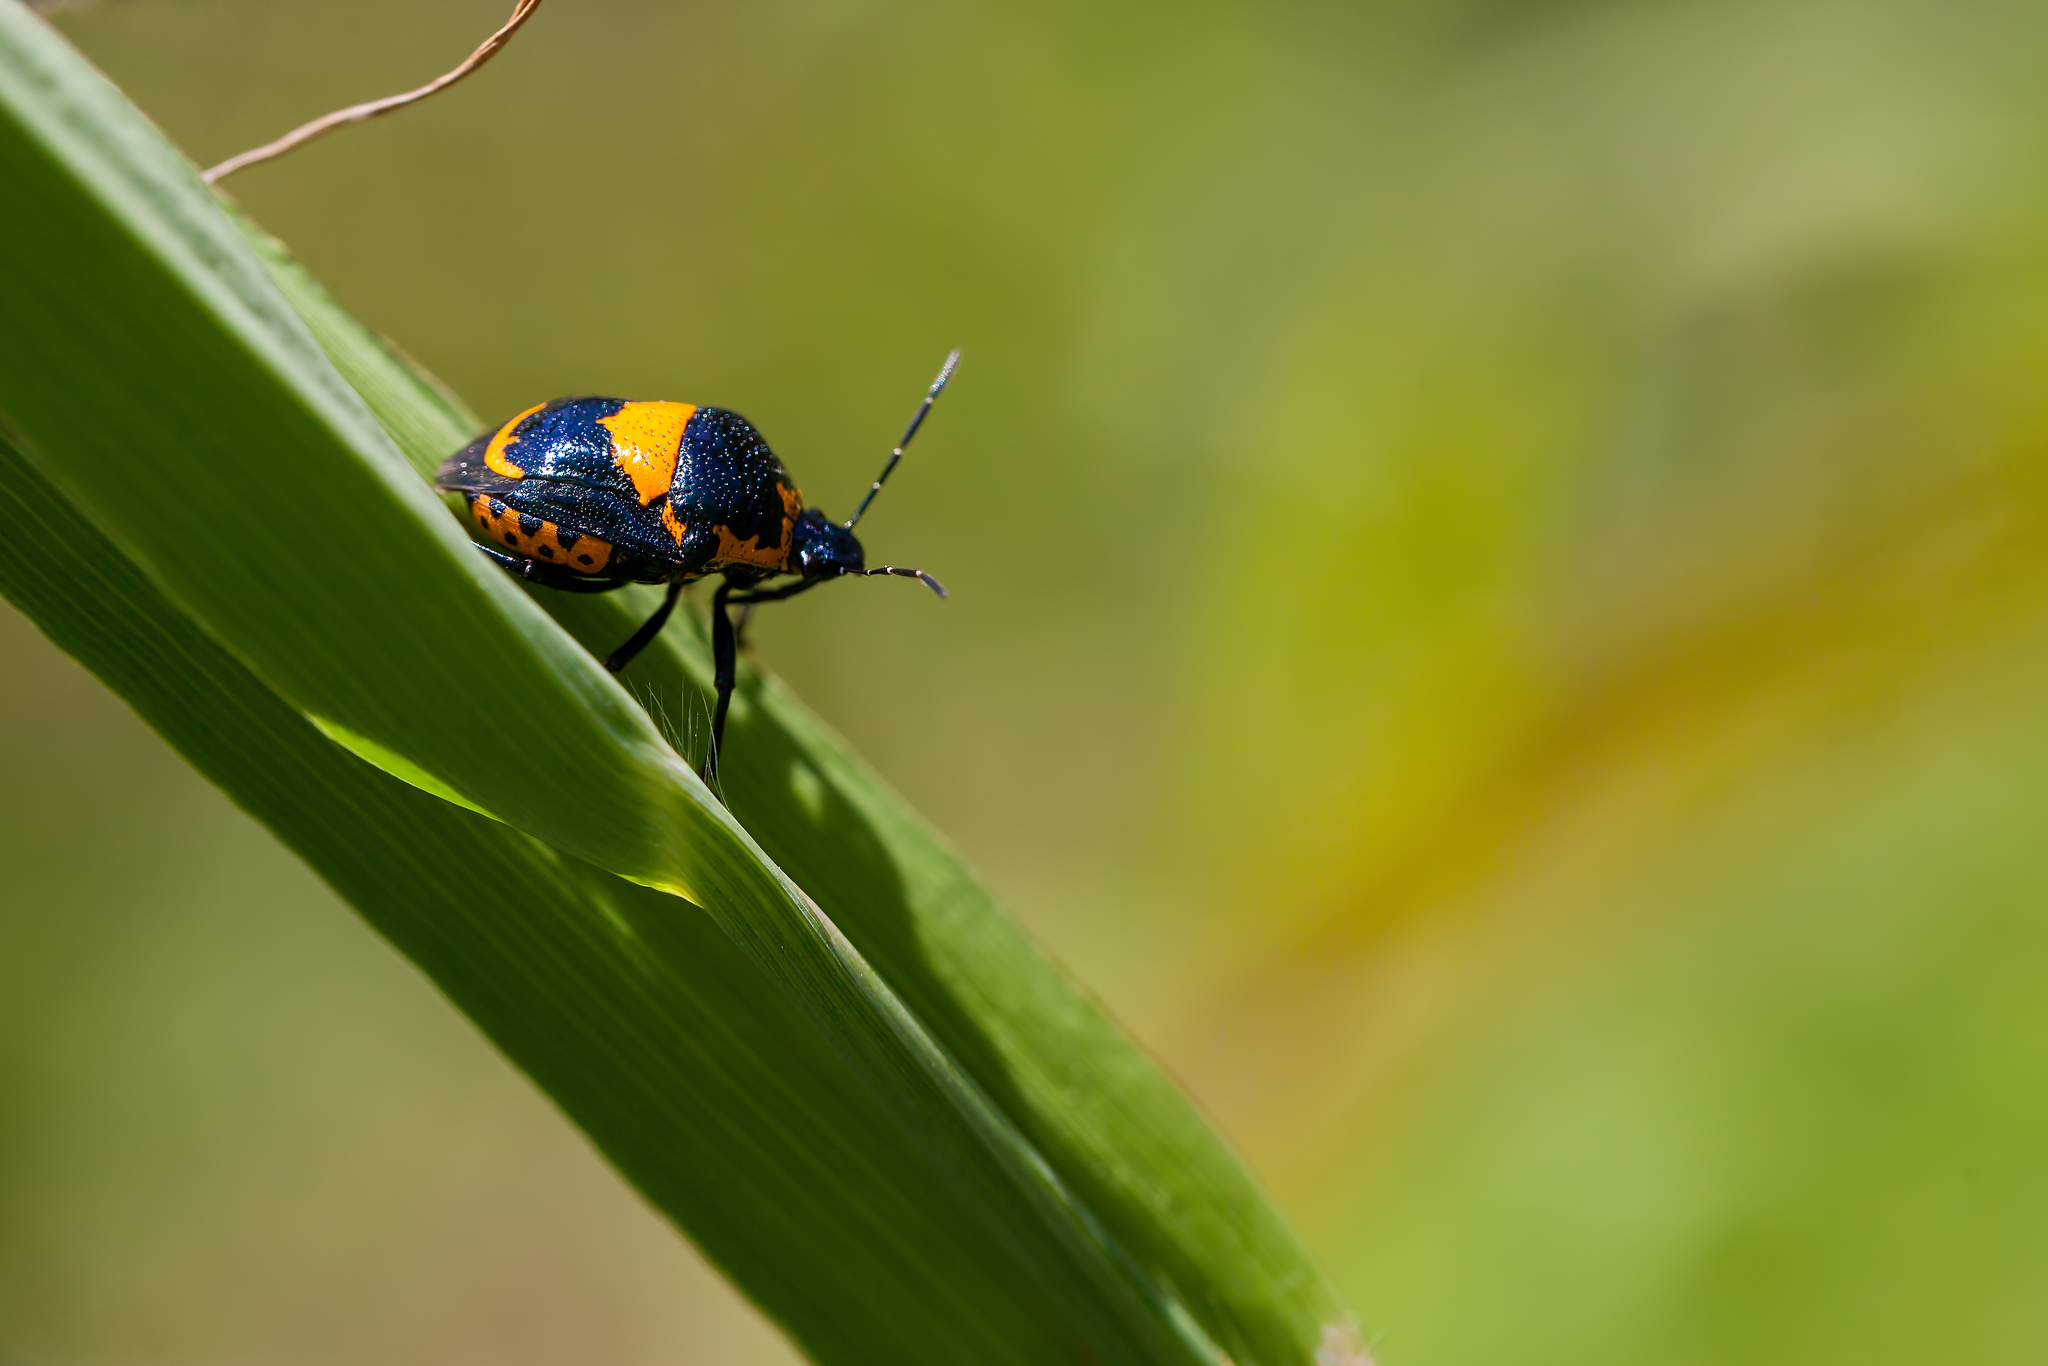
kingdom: Animalia
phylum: Arthropoda
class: Insecta
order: Hemiptera
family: Pentatomidae
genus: Stiretrus
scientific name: Stiretrus anchorago
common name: Anchor stink bug
